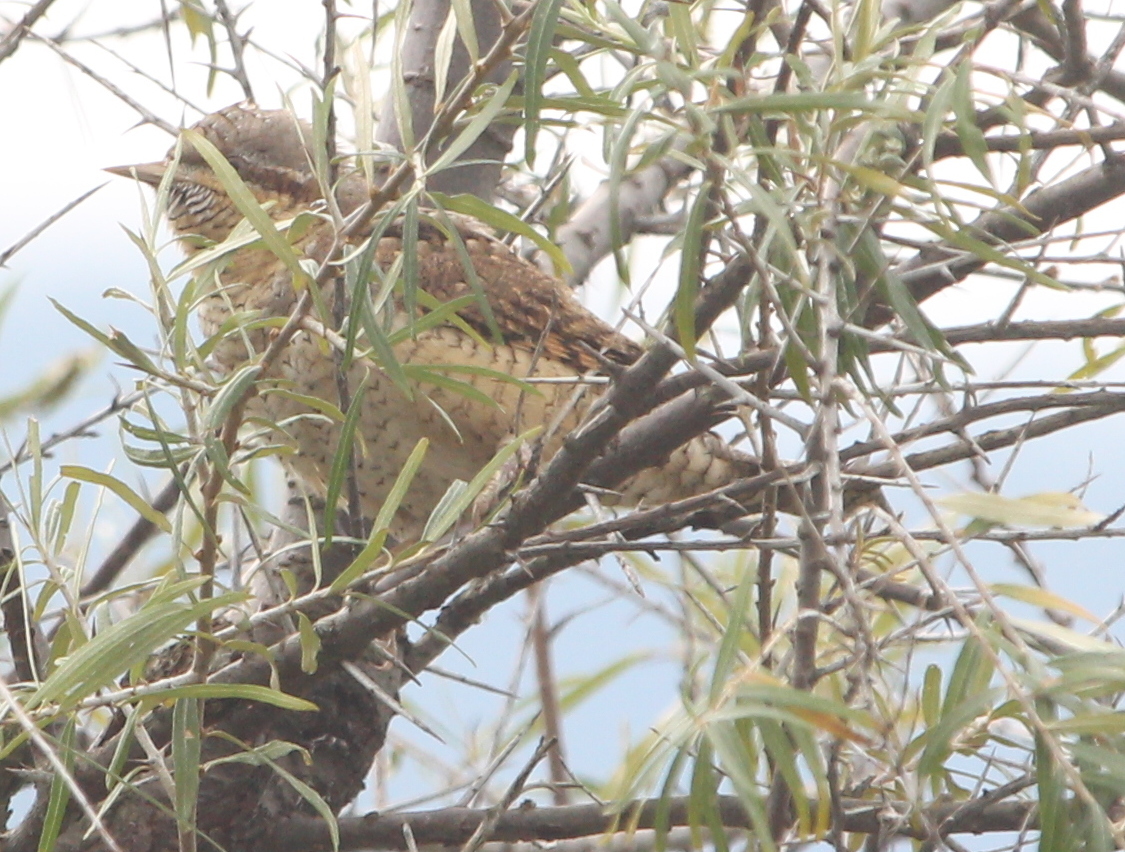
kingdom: Animalia
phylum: Chordata
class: Aves
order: Piciformes
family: Picidae
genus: Jynx
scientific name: Jynx torquilla
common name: Eurasian wryneck
